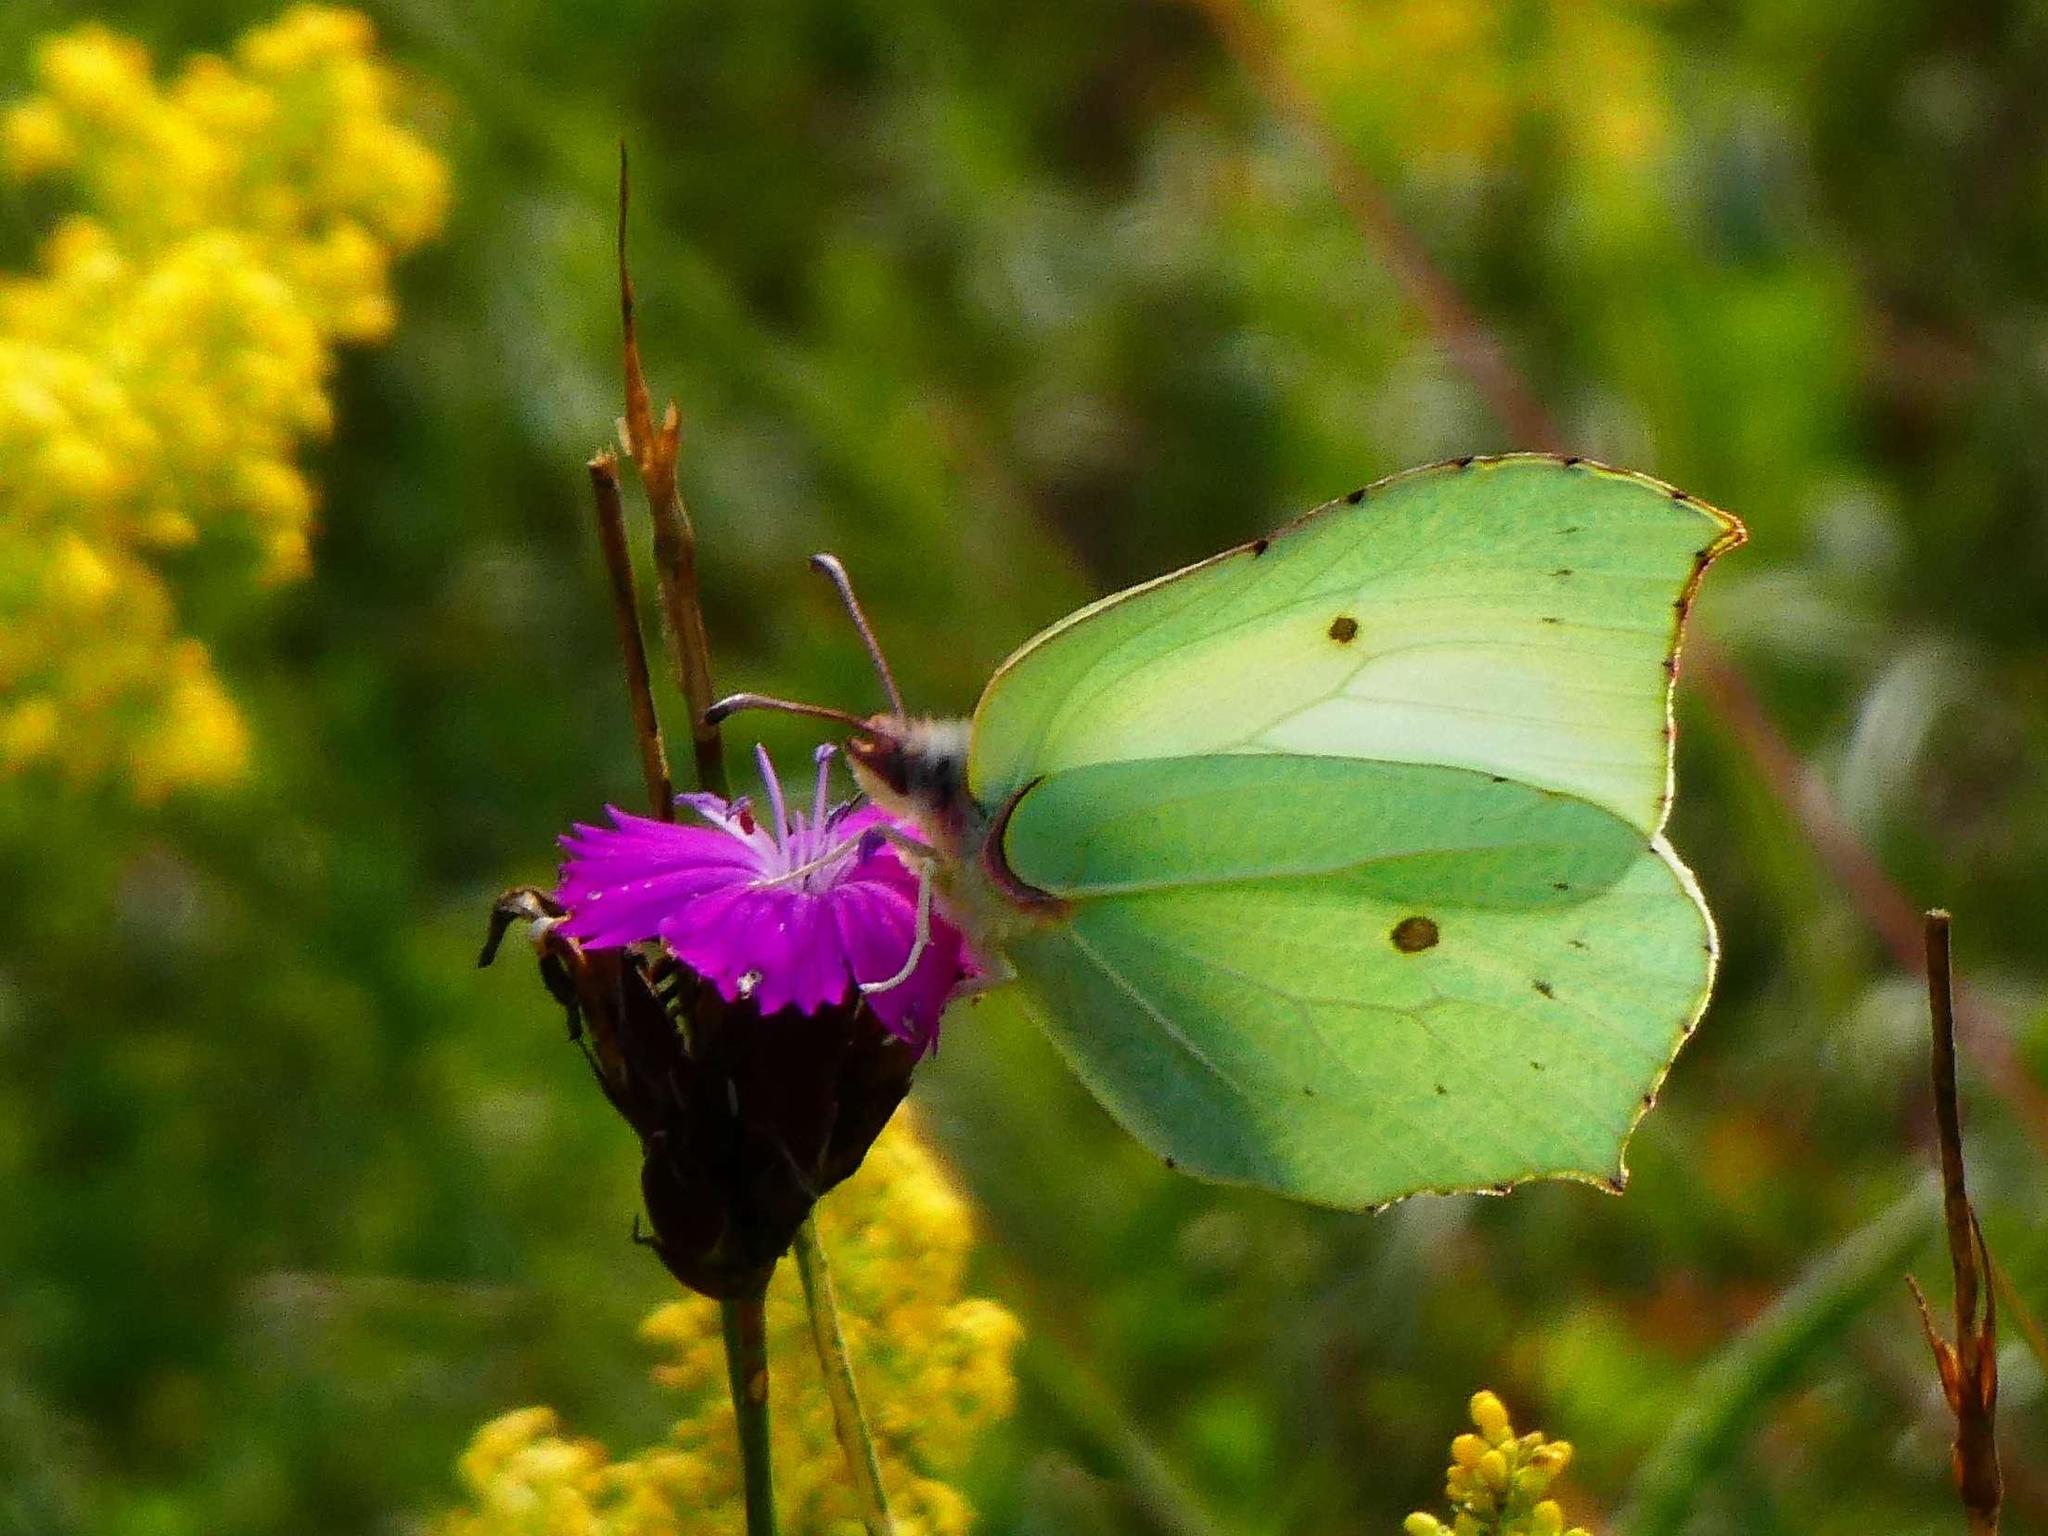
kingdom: Animalia
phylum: Arthropoda
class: Insecta
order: Lepidoptera
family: Pieridae
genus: Gonepteryx
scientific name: Gonepteryx rhamni
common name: Brimstone
